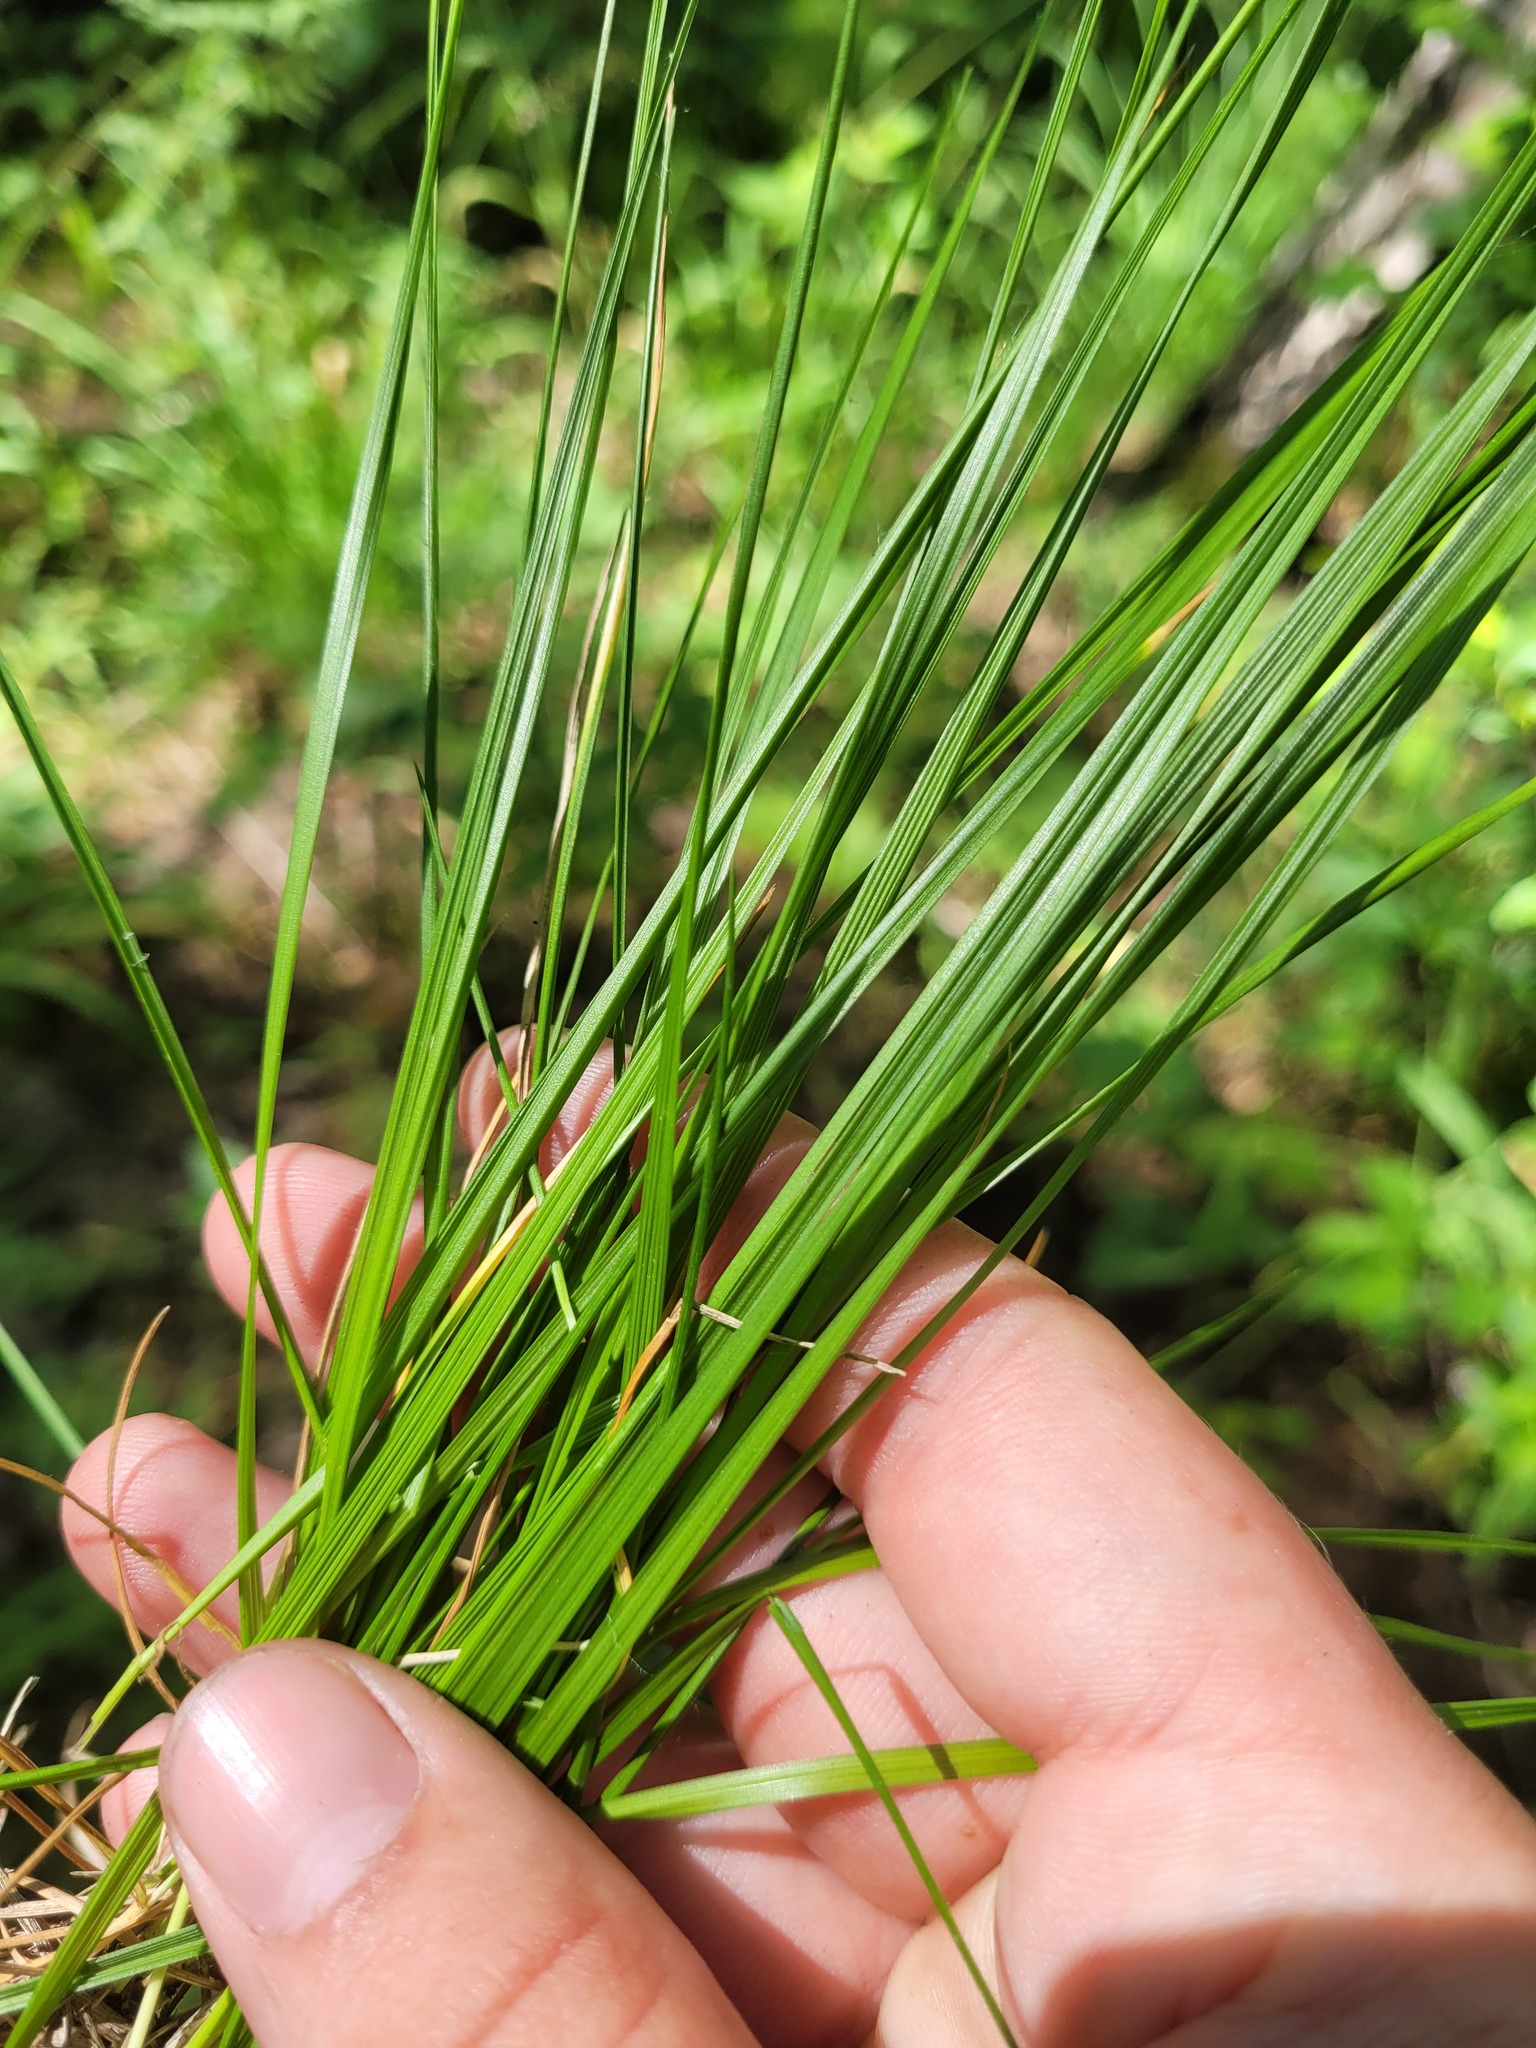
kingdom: Plantae
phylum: Tracheophyta
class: Liliopsida
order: Poales
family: Poaceae
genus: Deschampsia
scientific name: Deschampsia cespitosa
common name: Tufted hair-grass
